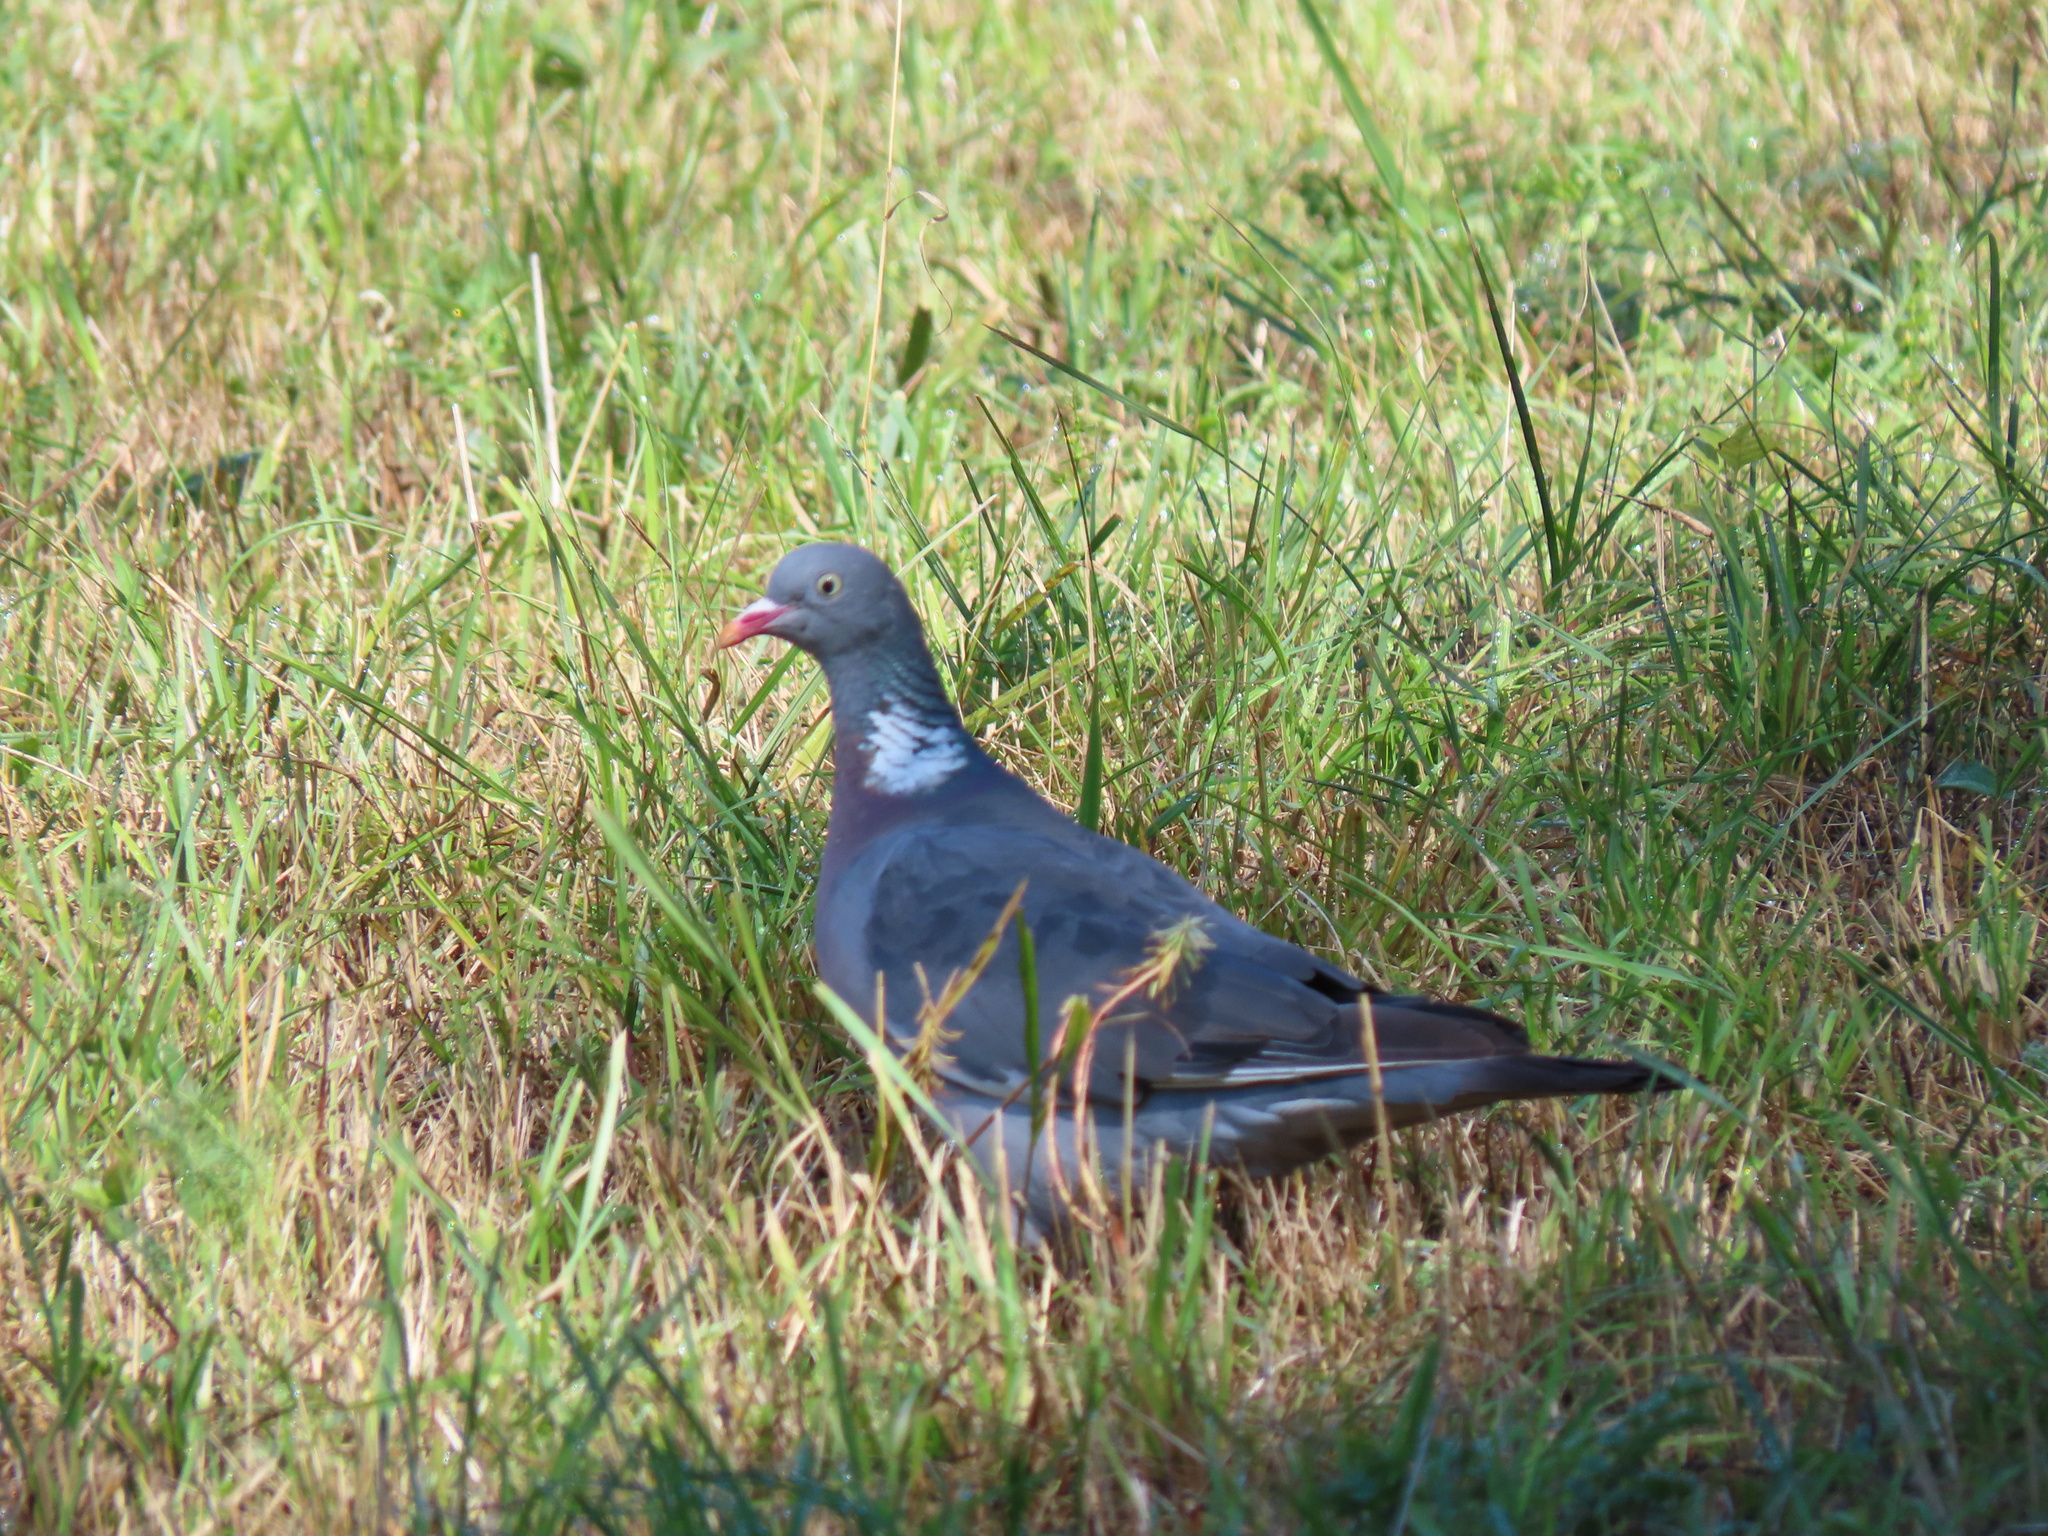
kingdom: Animalia
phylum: Chordata
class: Aves
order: Columbiformes
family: Columbidae
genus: Columba
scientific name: Columba palumbus
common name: Common wood pigeon
